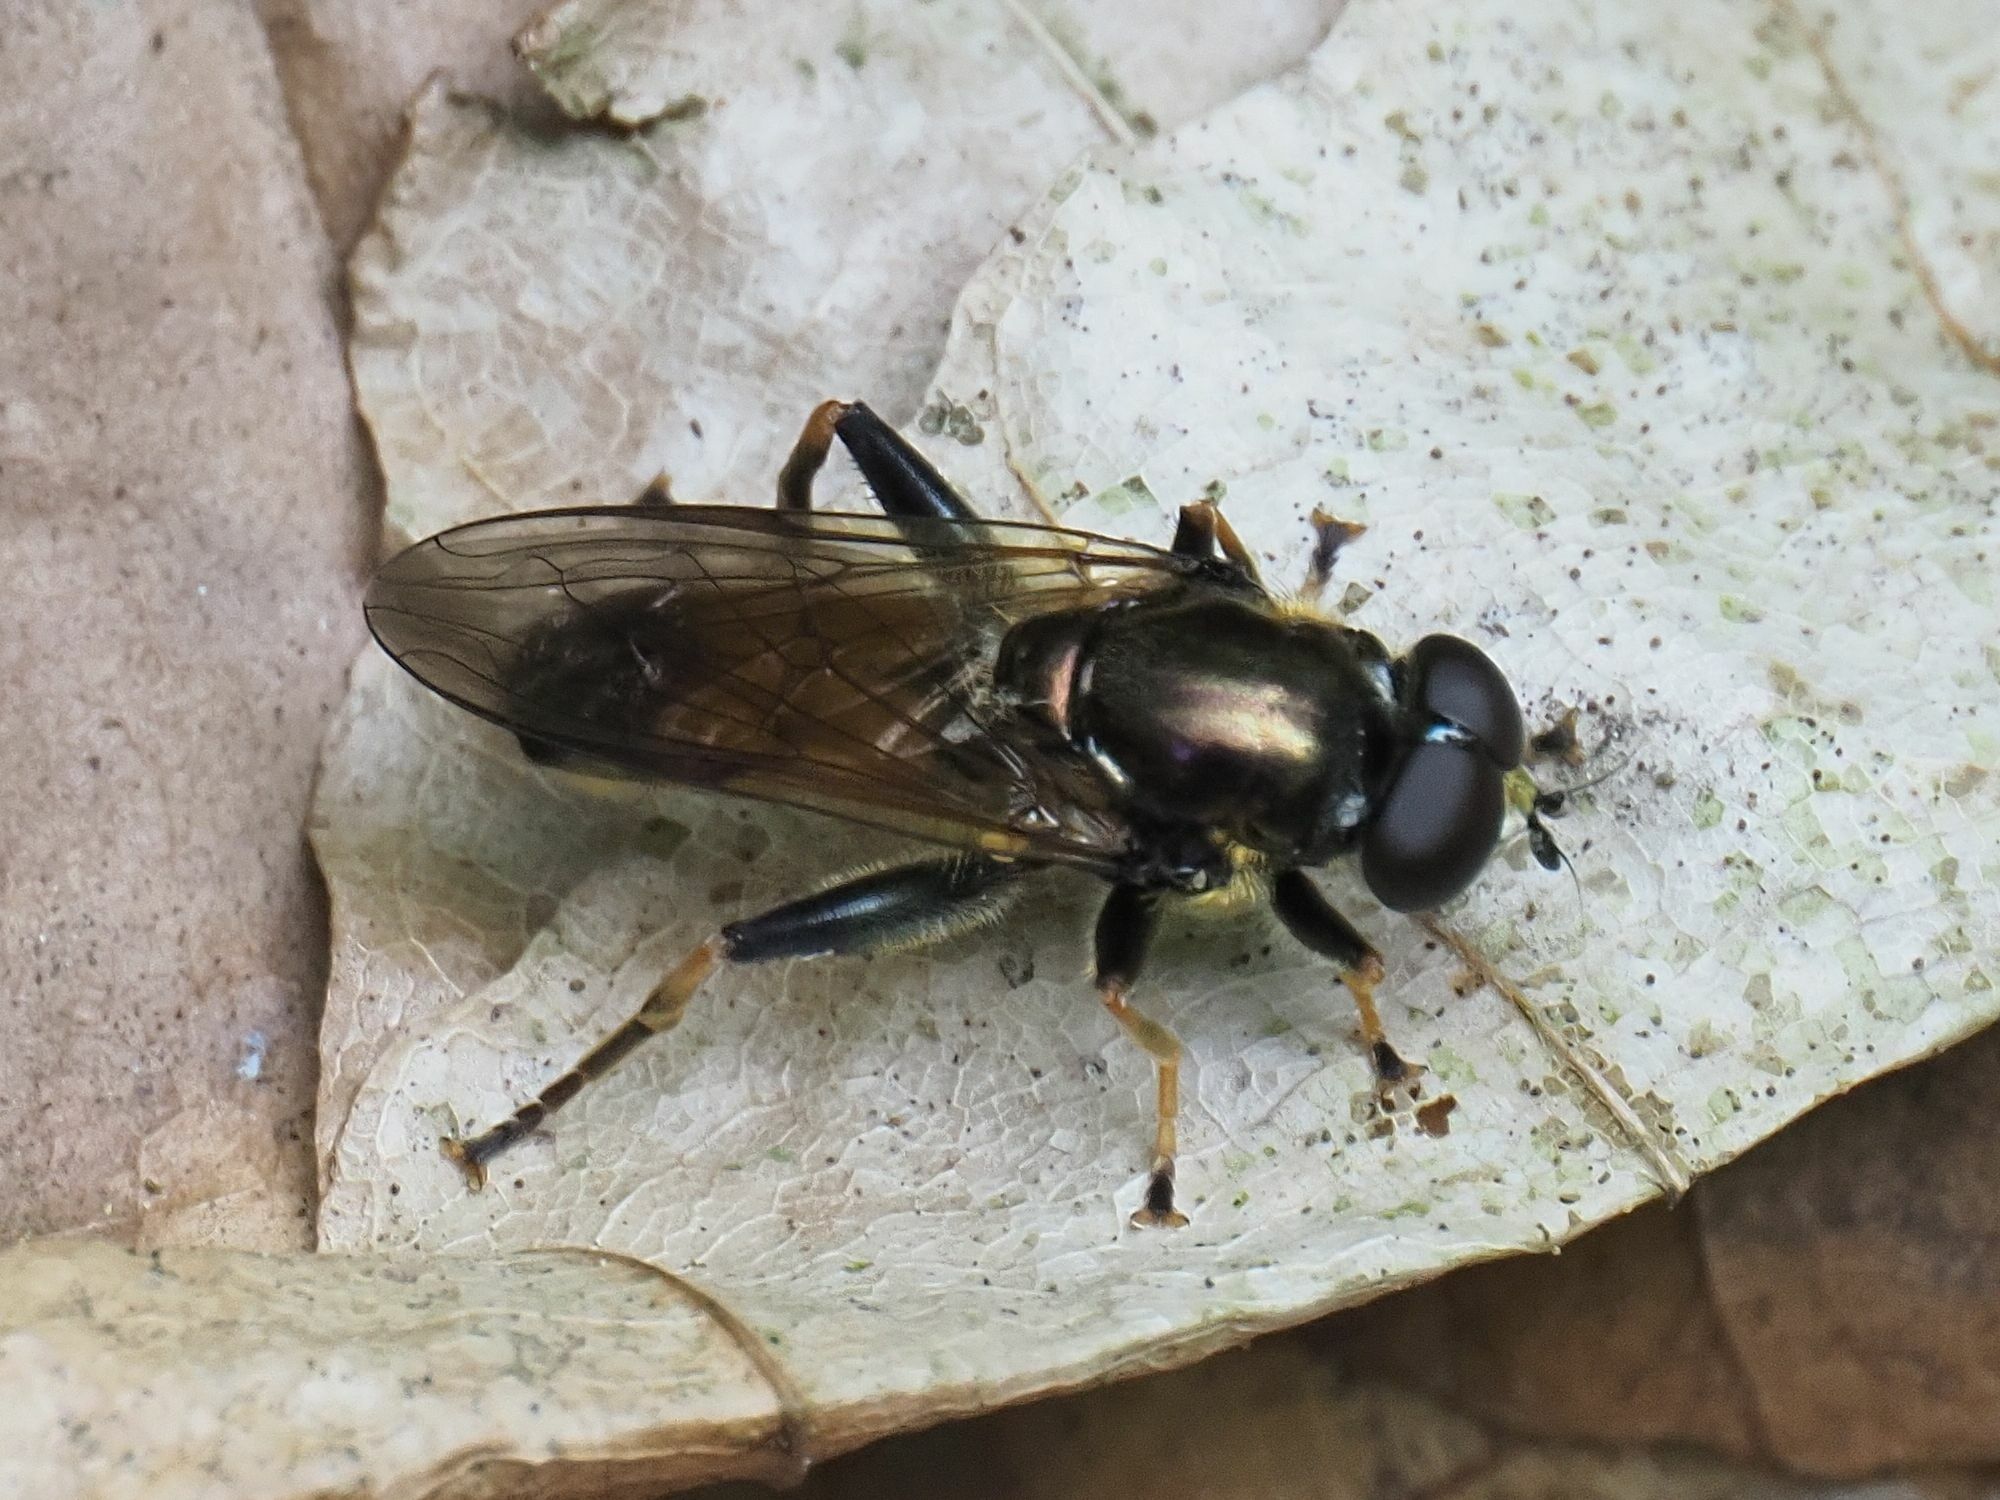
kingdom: Animalia
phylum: Arthropoda
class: Insecta
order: Diptera
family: Syrphidae
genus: Xylota
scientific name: Xylota segnis
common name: Brown-toed forest fly
